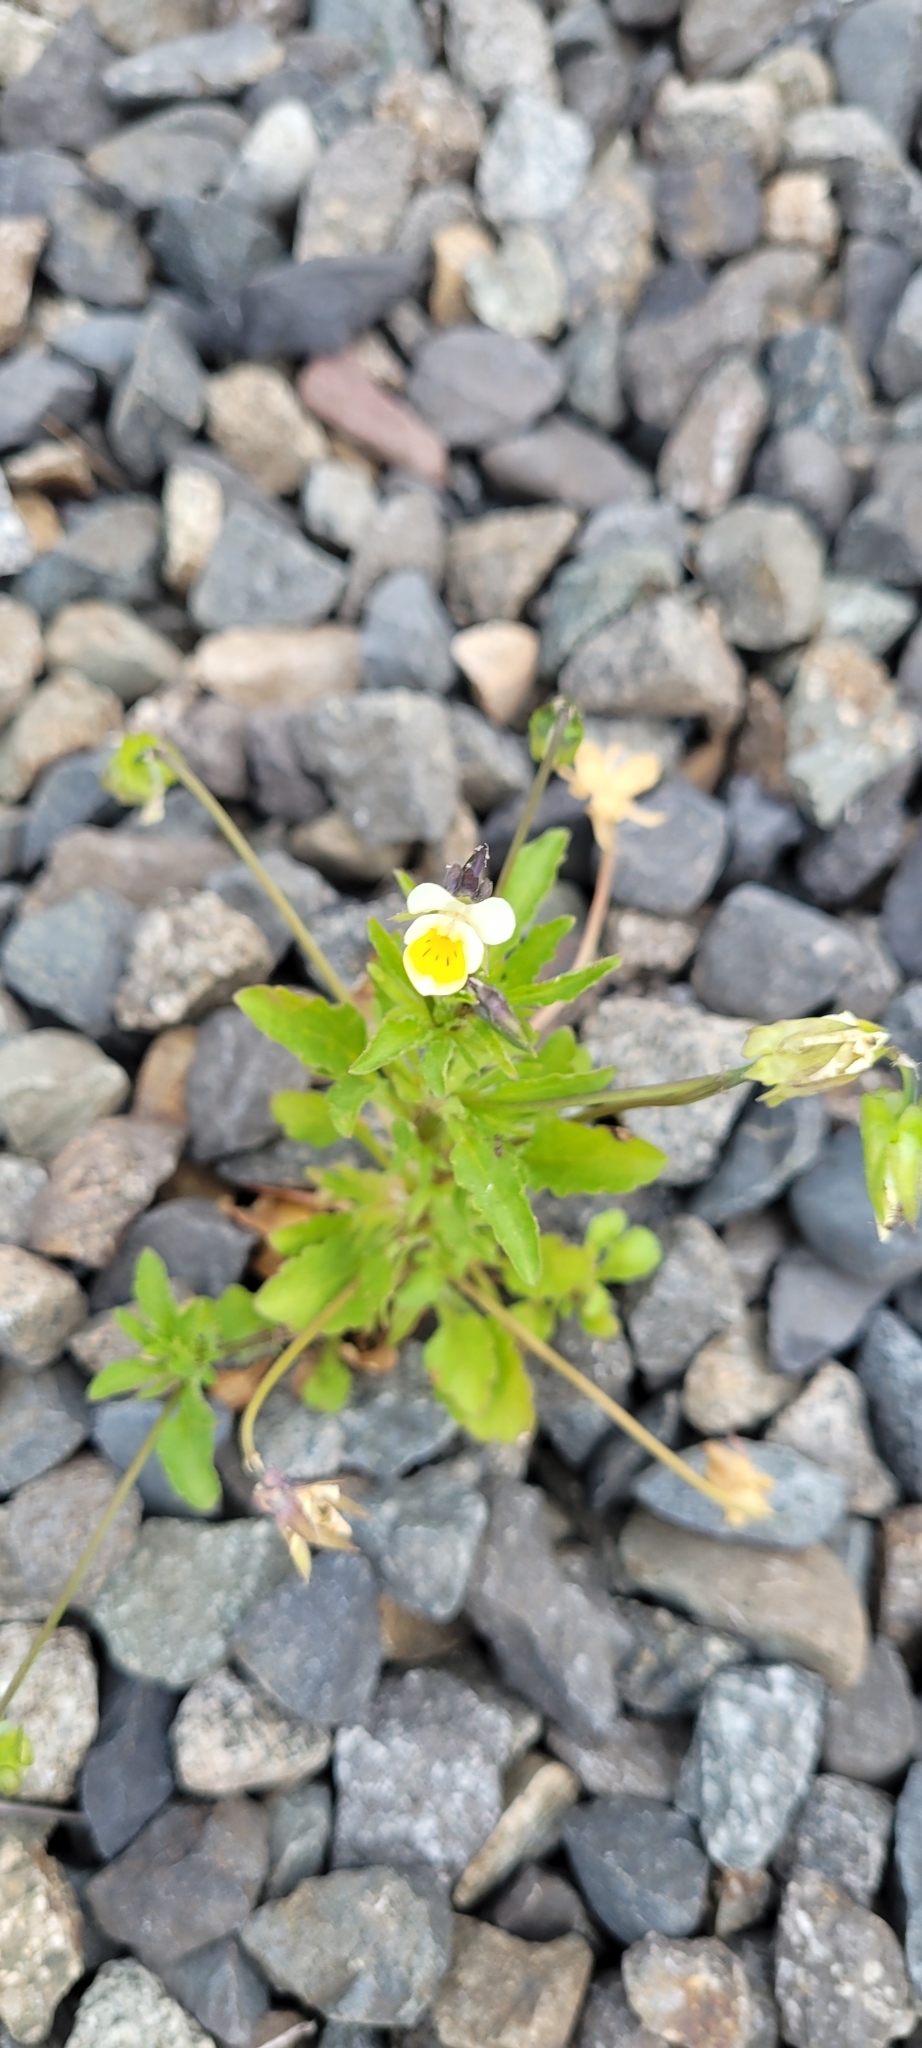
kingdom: Plantae
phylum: Tracheophyta
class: Magnoliopsida
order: Malpighiales
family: Violaceae
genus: Viola
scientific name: Viola arvensis
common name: Field pansy
